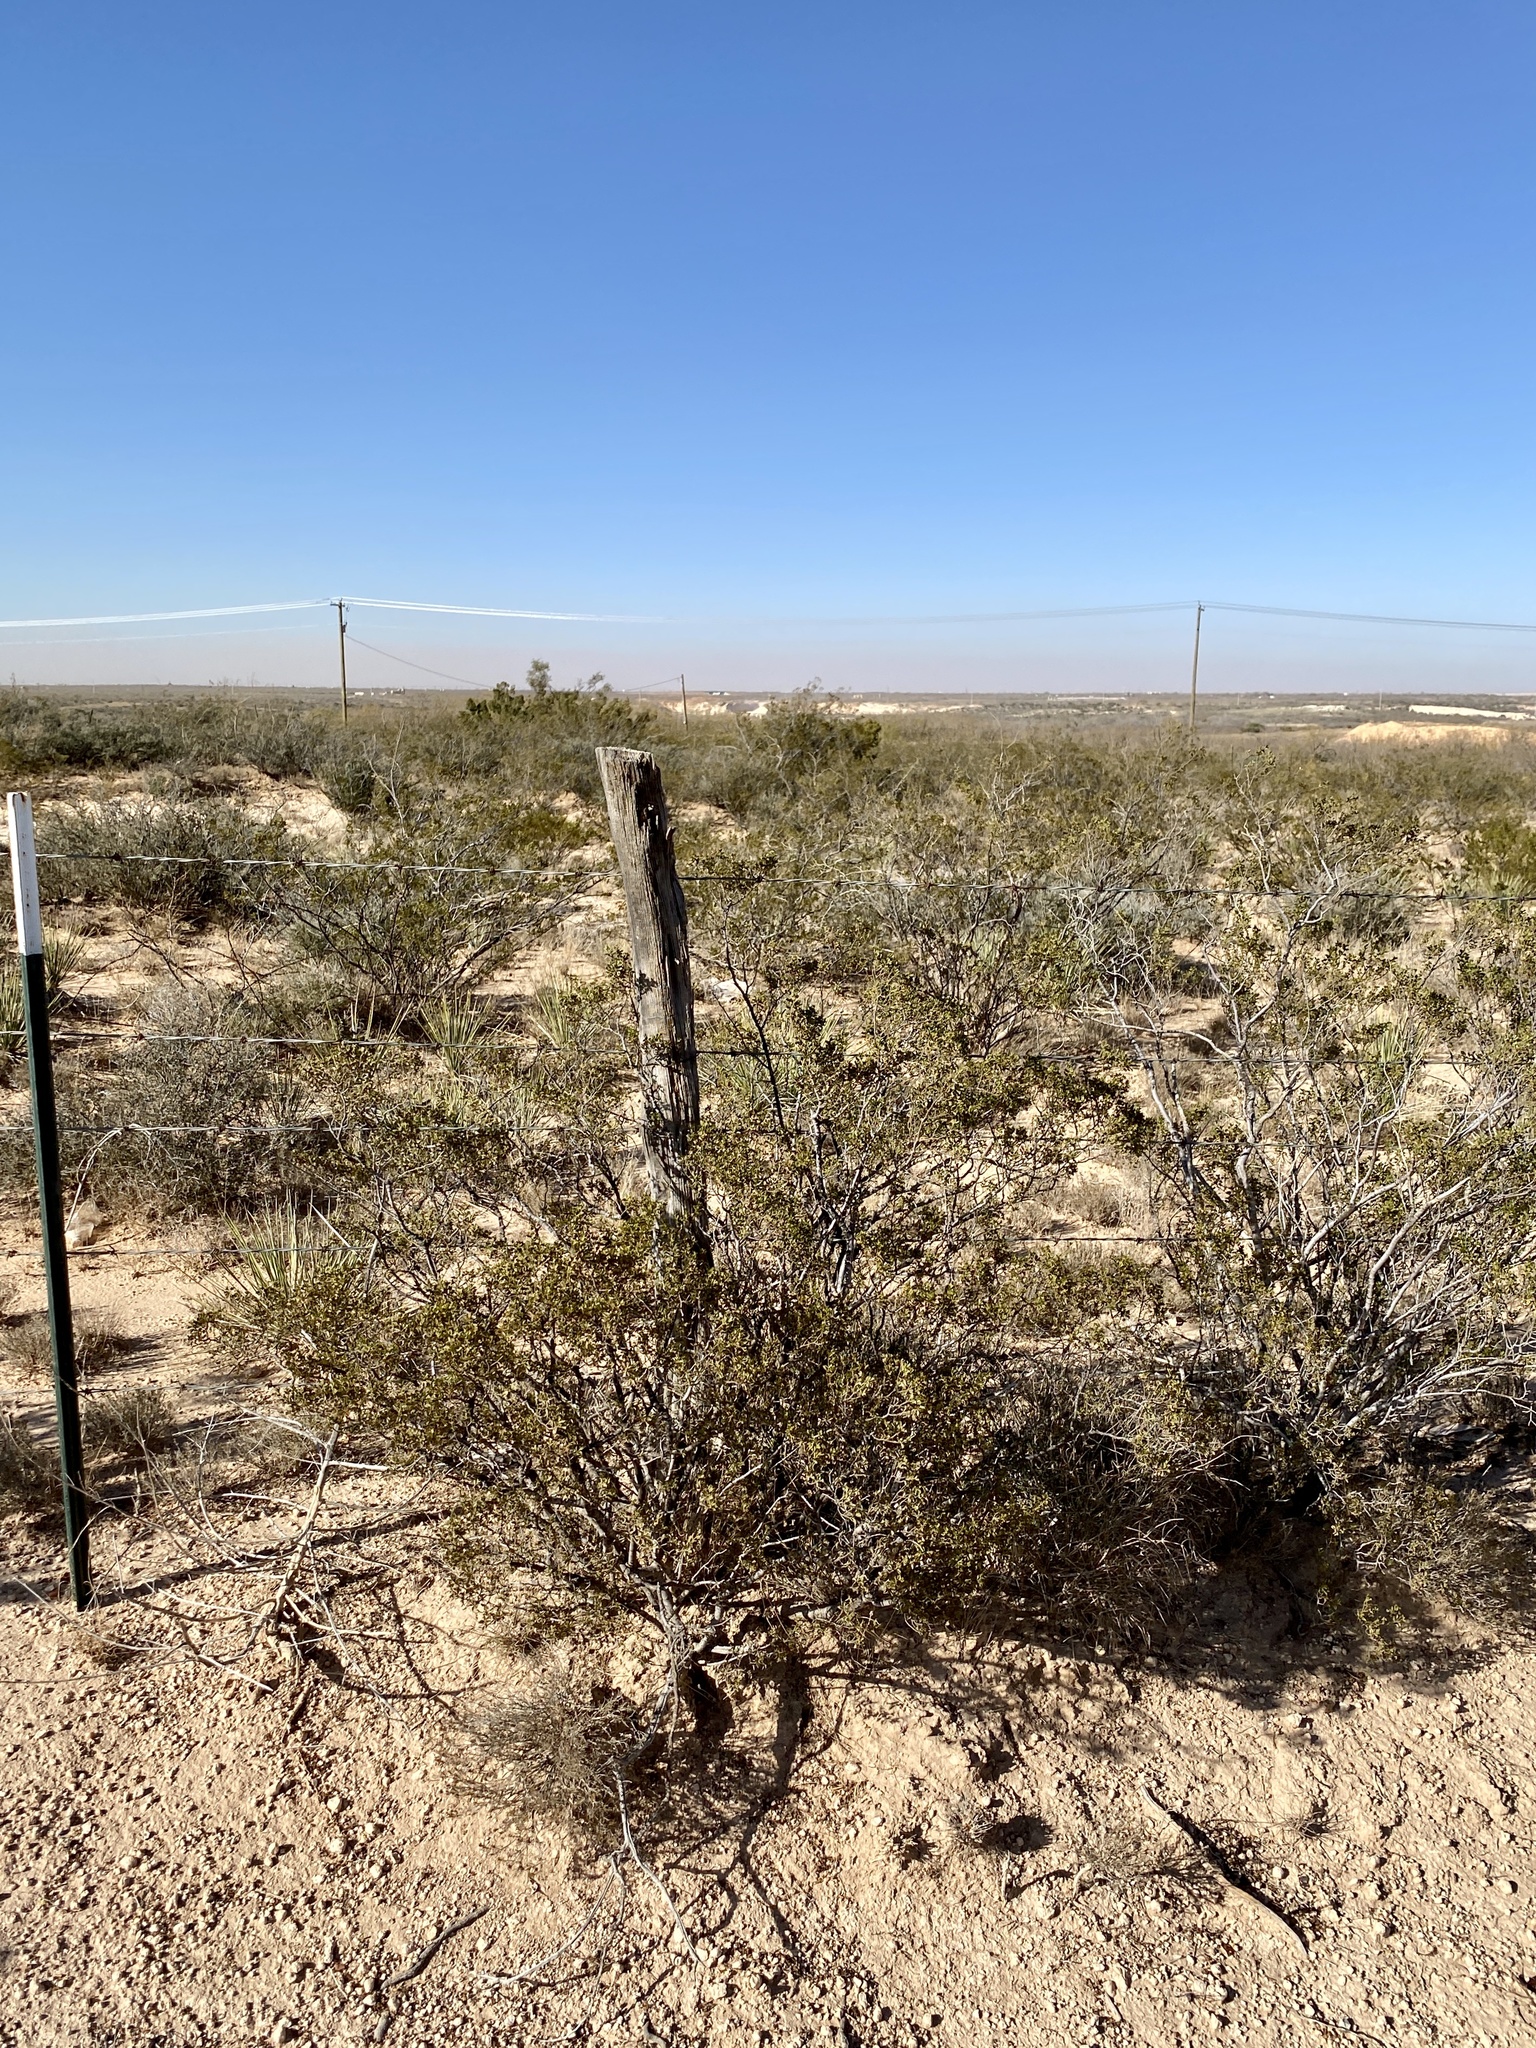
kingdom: Plantae
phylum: Tracheophyta
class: Magnoliopsida
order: Zygophyllales
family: Zygophyllaceae
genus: Larrea
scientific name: Larrea tridentata
